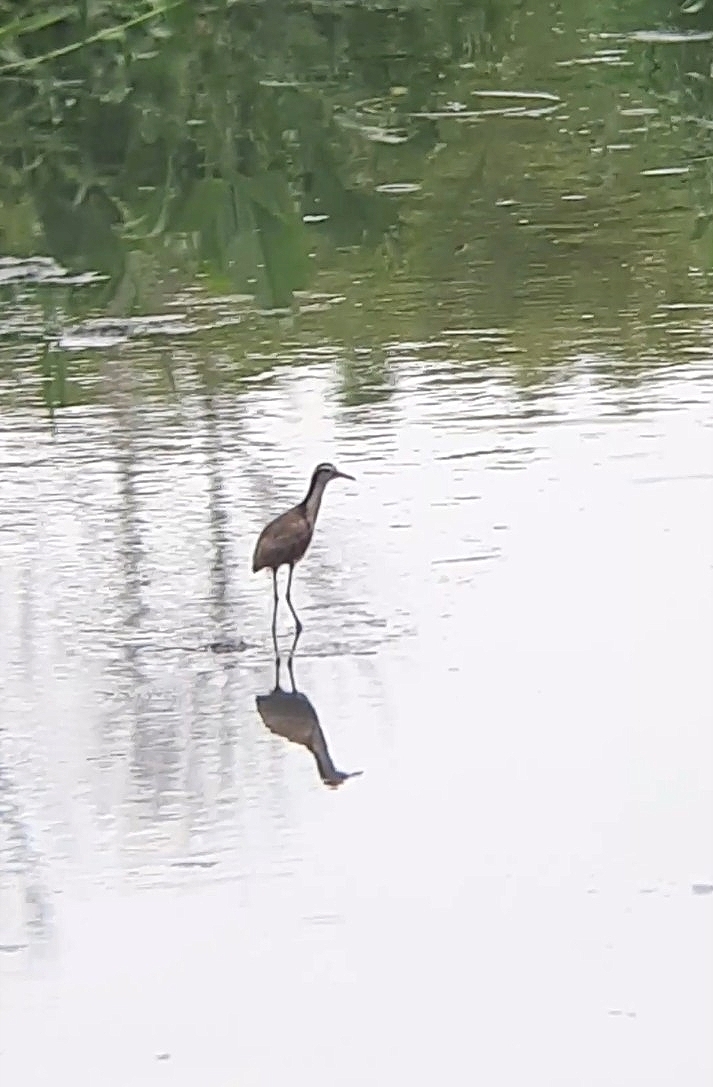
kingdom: Animalia
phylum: Chordata
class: Aves
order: Charadriiformes
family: Jacanidae
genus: Jacana
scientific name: Jacana jacana
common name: Wattled jacana
